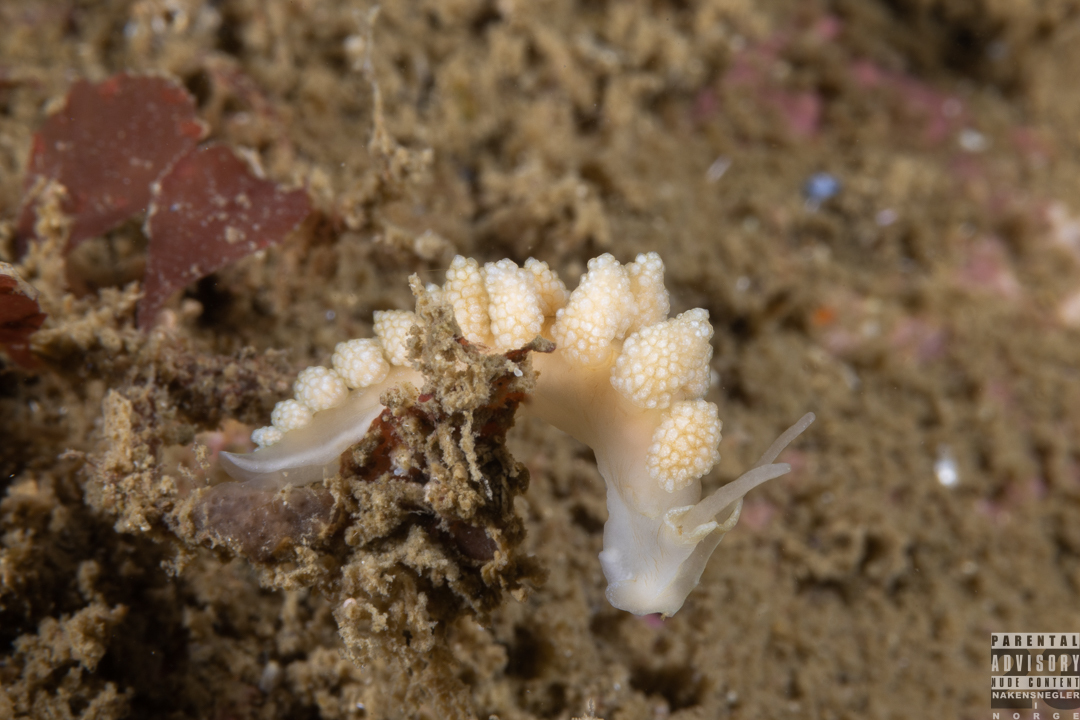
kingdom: Animalia
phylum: Mollusca
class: Gastropoda
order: Nudibranchia
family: Dotidae
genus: Doto
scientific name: Doto fragilis
